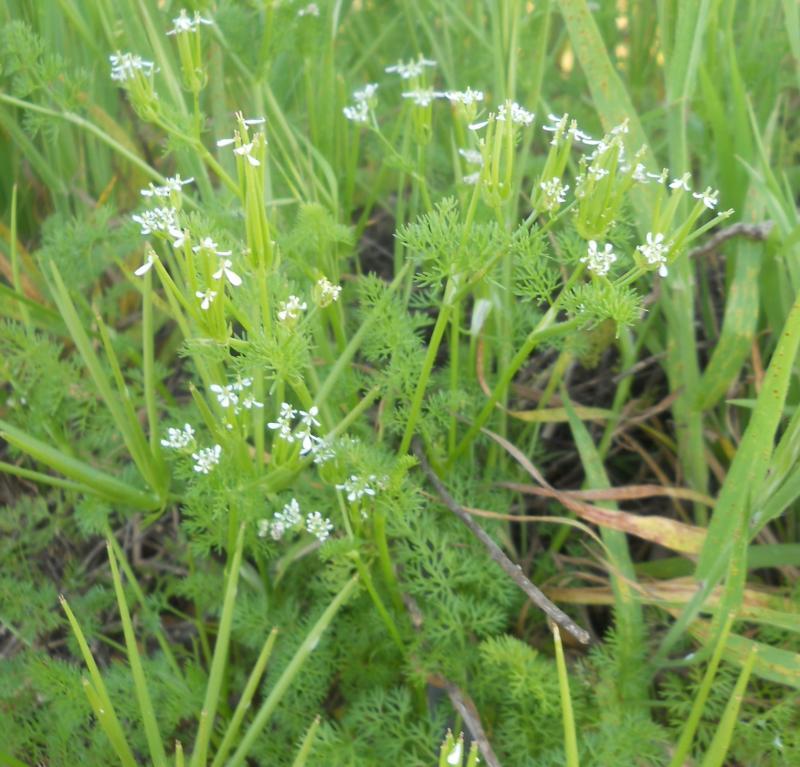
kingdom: Plantae
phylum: Tracheophyta
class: Magnoliopsida
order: Apiales
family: Apiaceae
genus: Scandix
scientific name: Scandix pecten-veneris
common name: Shepherd's-needle
